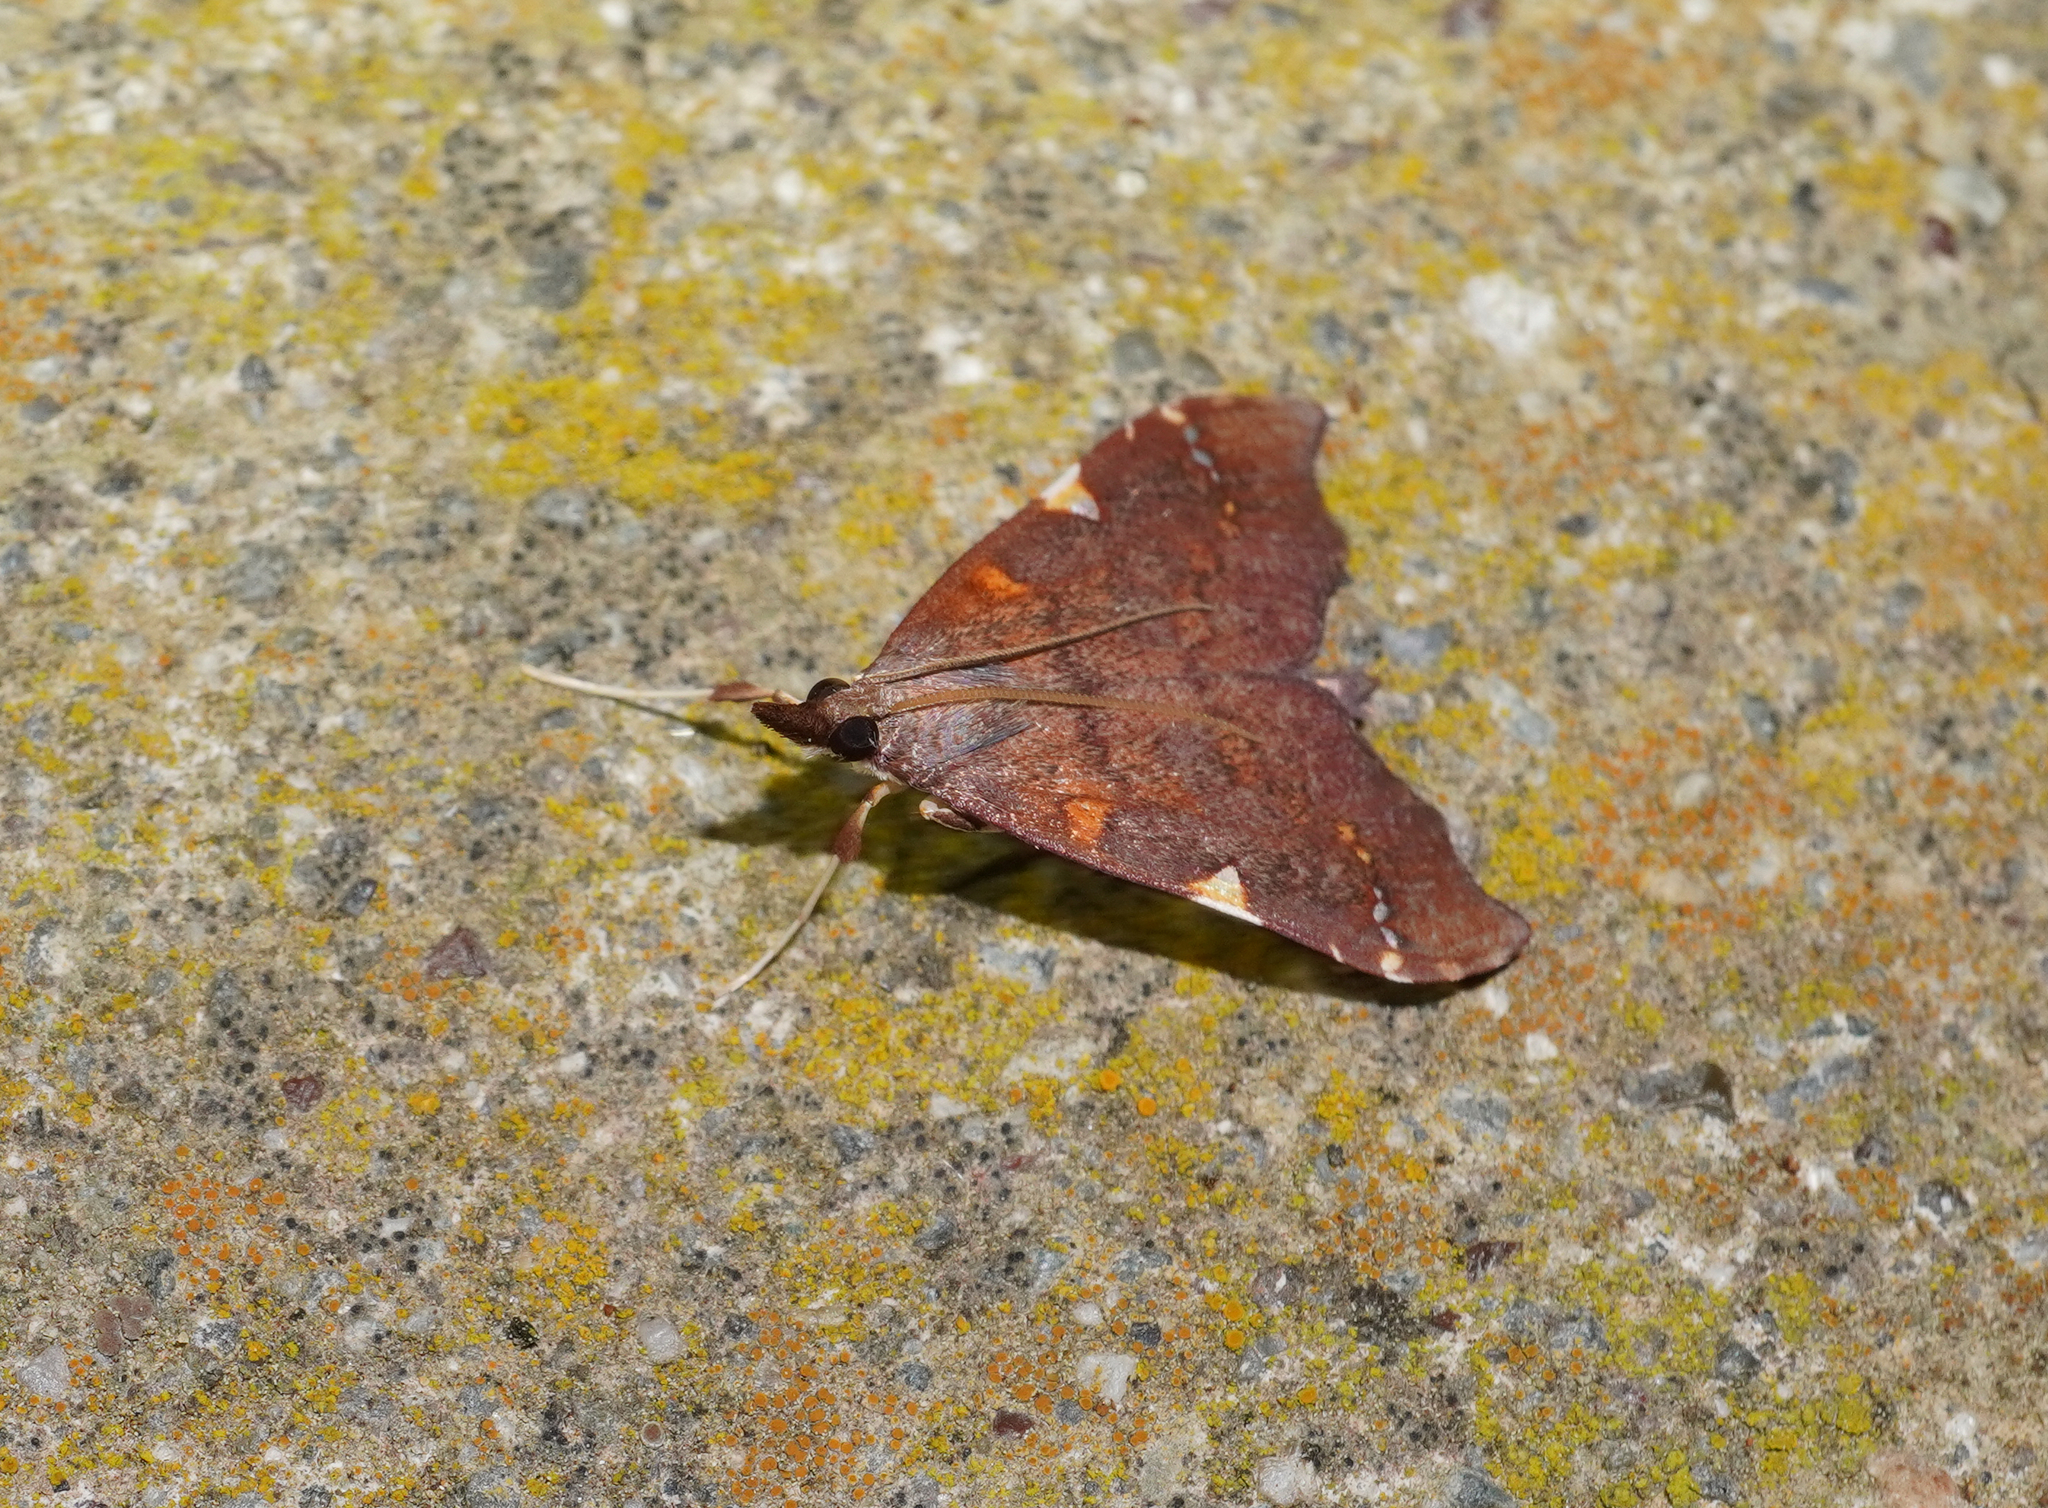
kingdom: Animalia
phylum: Arthropoda
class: Insecta
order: Lepidoptera
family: Crambidae
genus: Deana
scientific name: Deana hybreasalis
